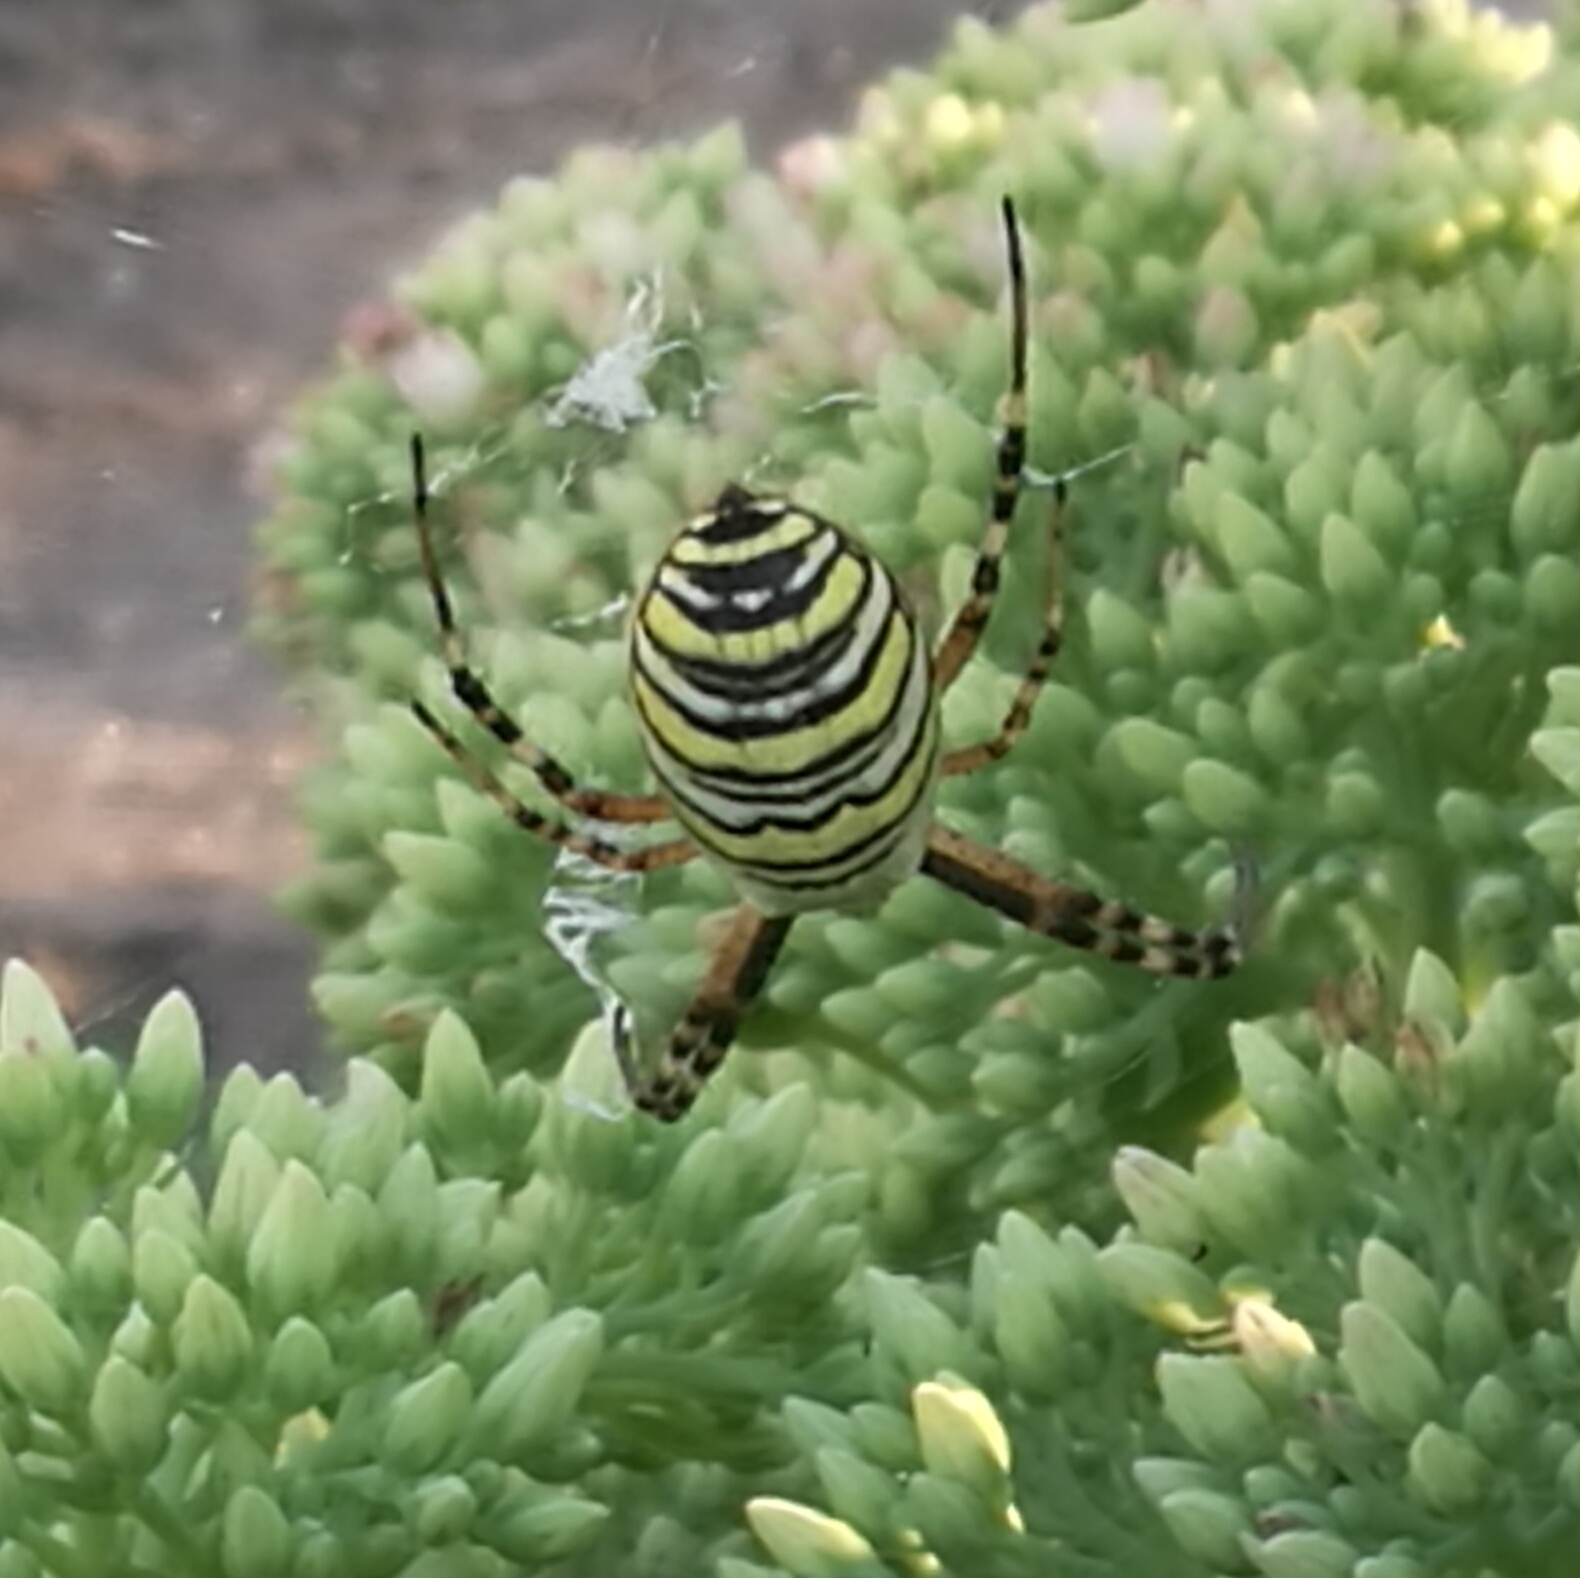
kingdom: Animalia
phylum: Arthropoda
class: Arachnida
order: Araneae
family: Araneidae
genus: Argiope
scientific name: Argiope bruennichi
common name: Wasp spider
